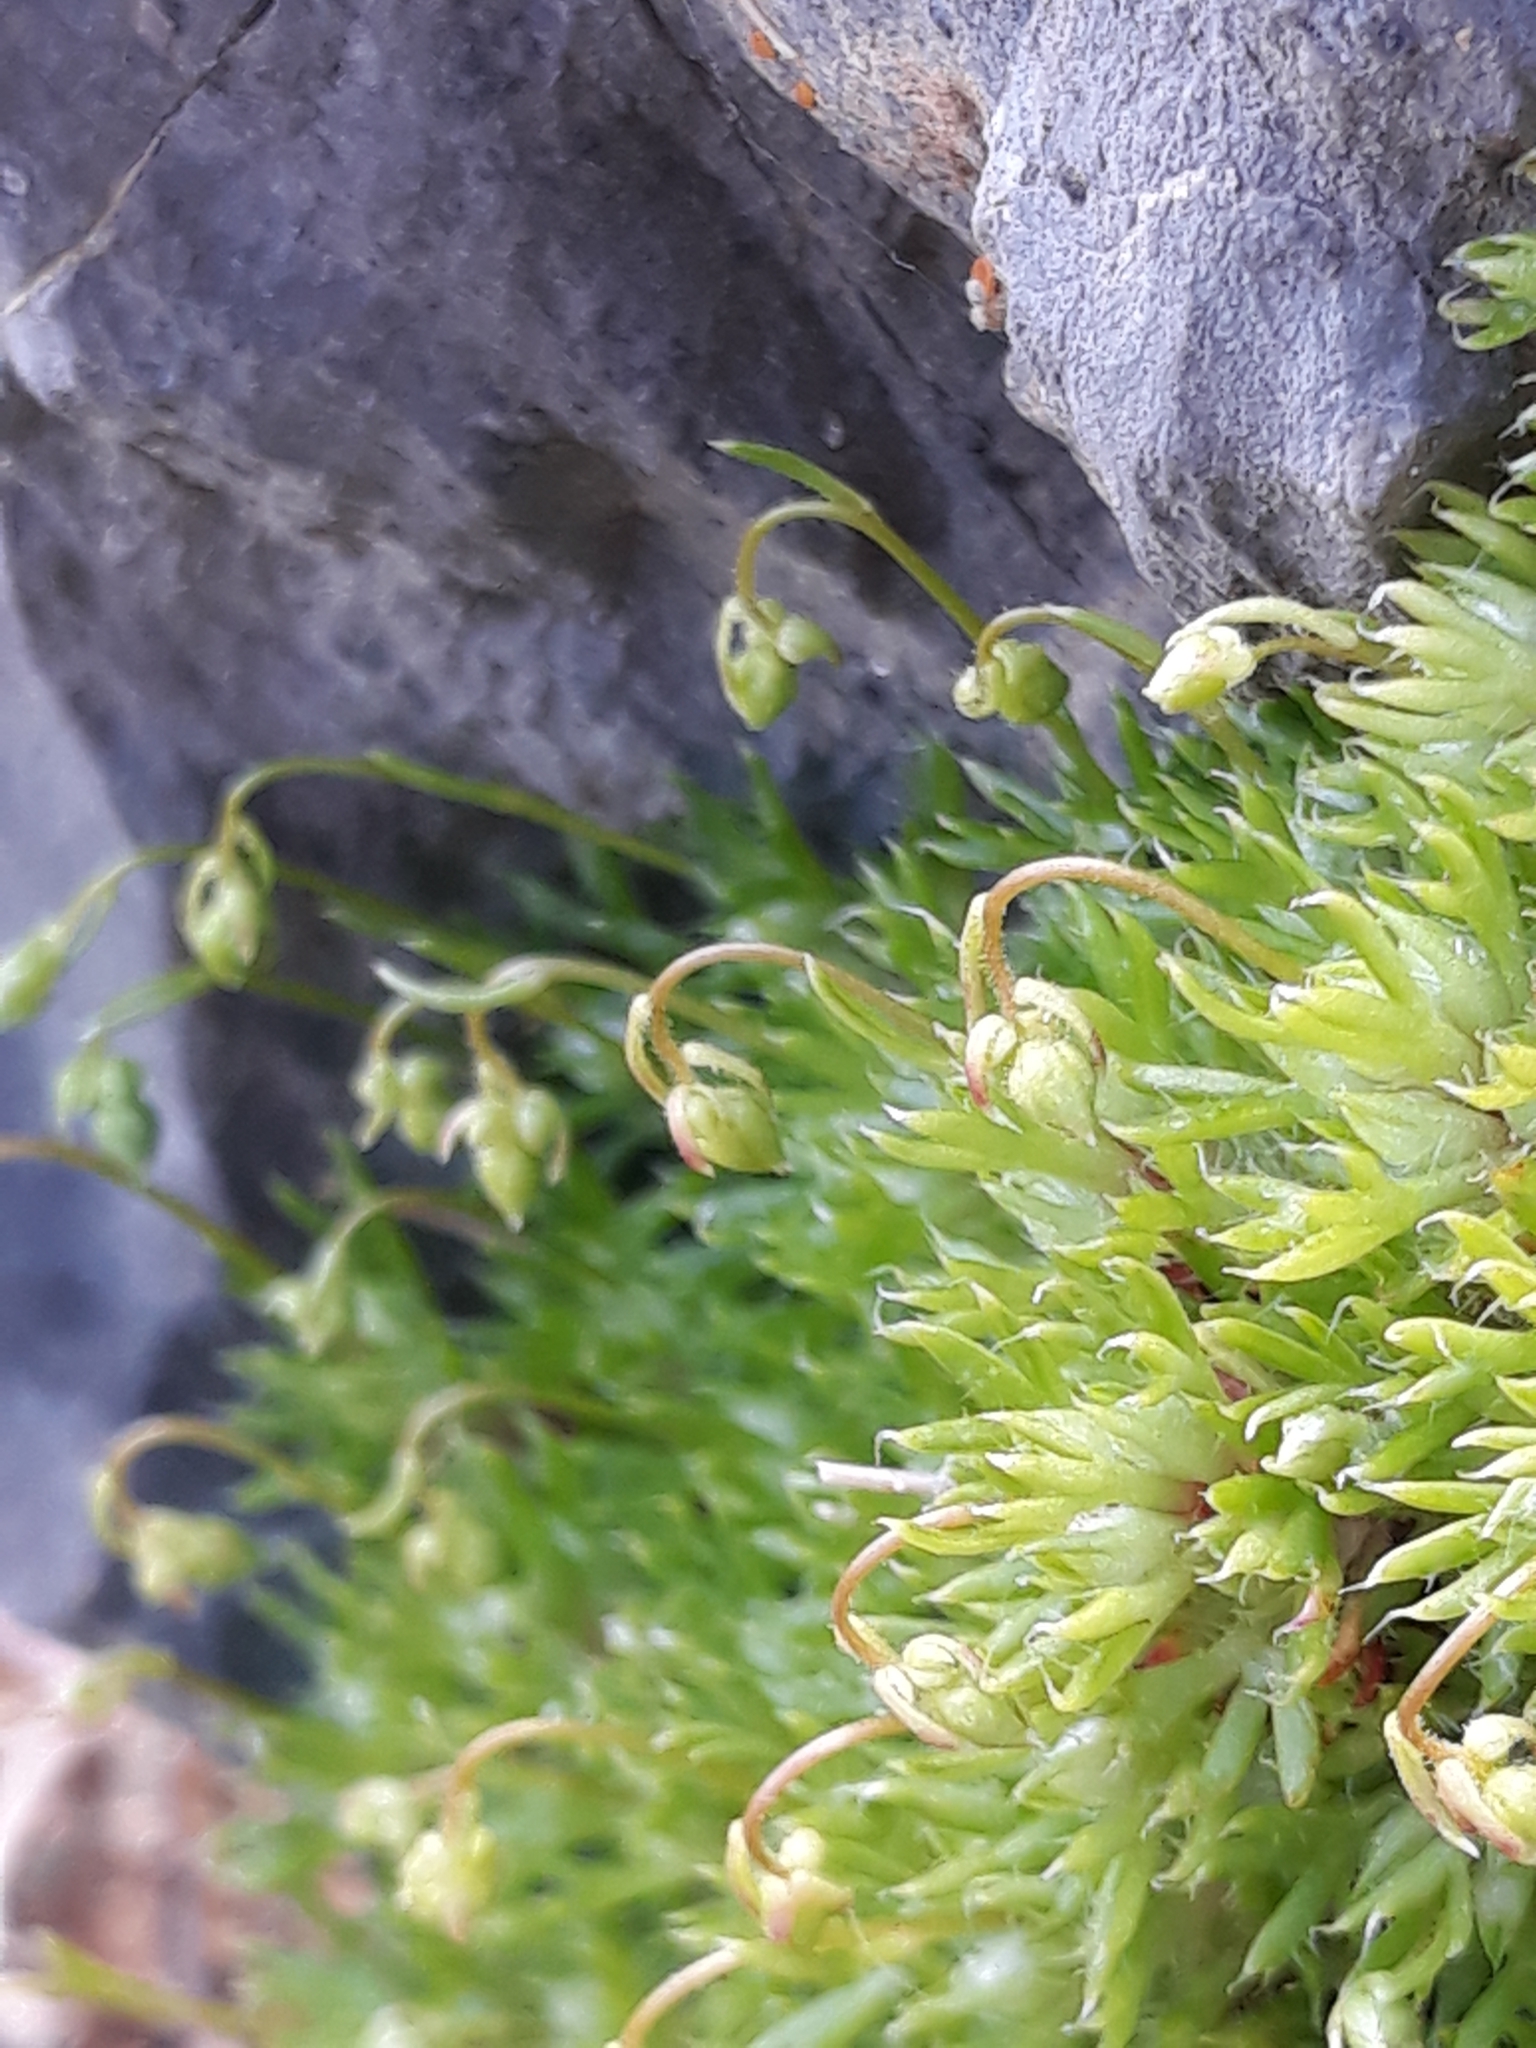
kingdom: Plantae
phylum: Tracheophyta
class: Magnoliopsida
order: Saxifragales
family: Saxifragaceae
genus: Saxifraga
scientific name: Saxifraga globulifera
